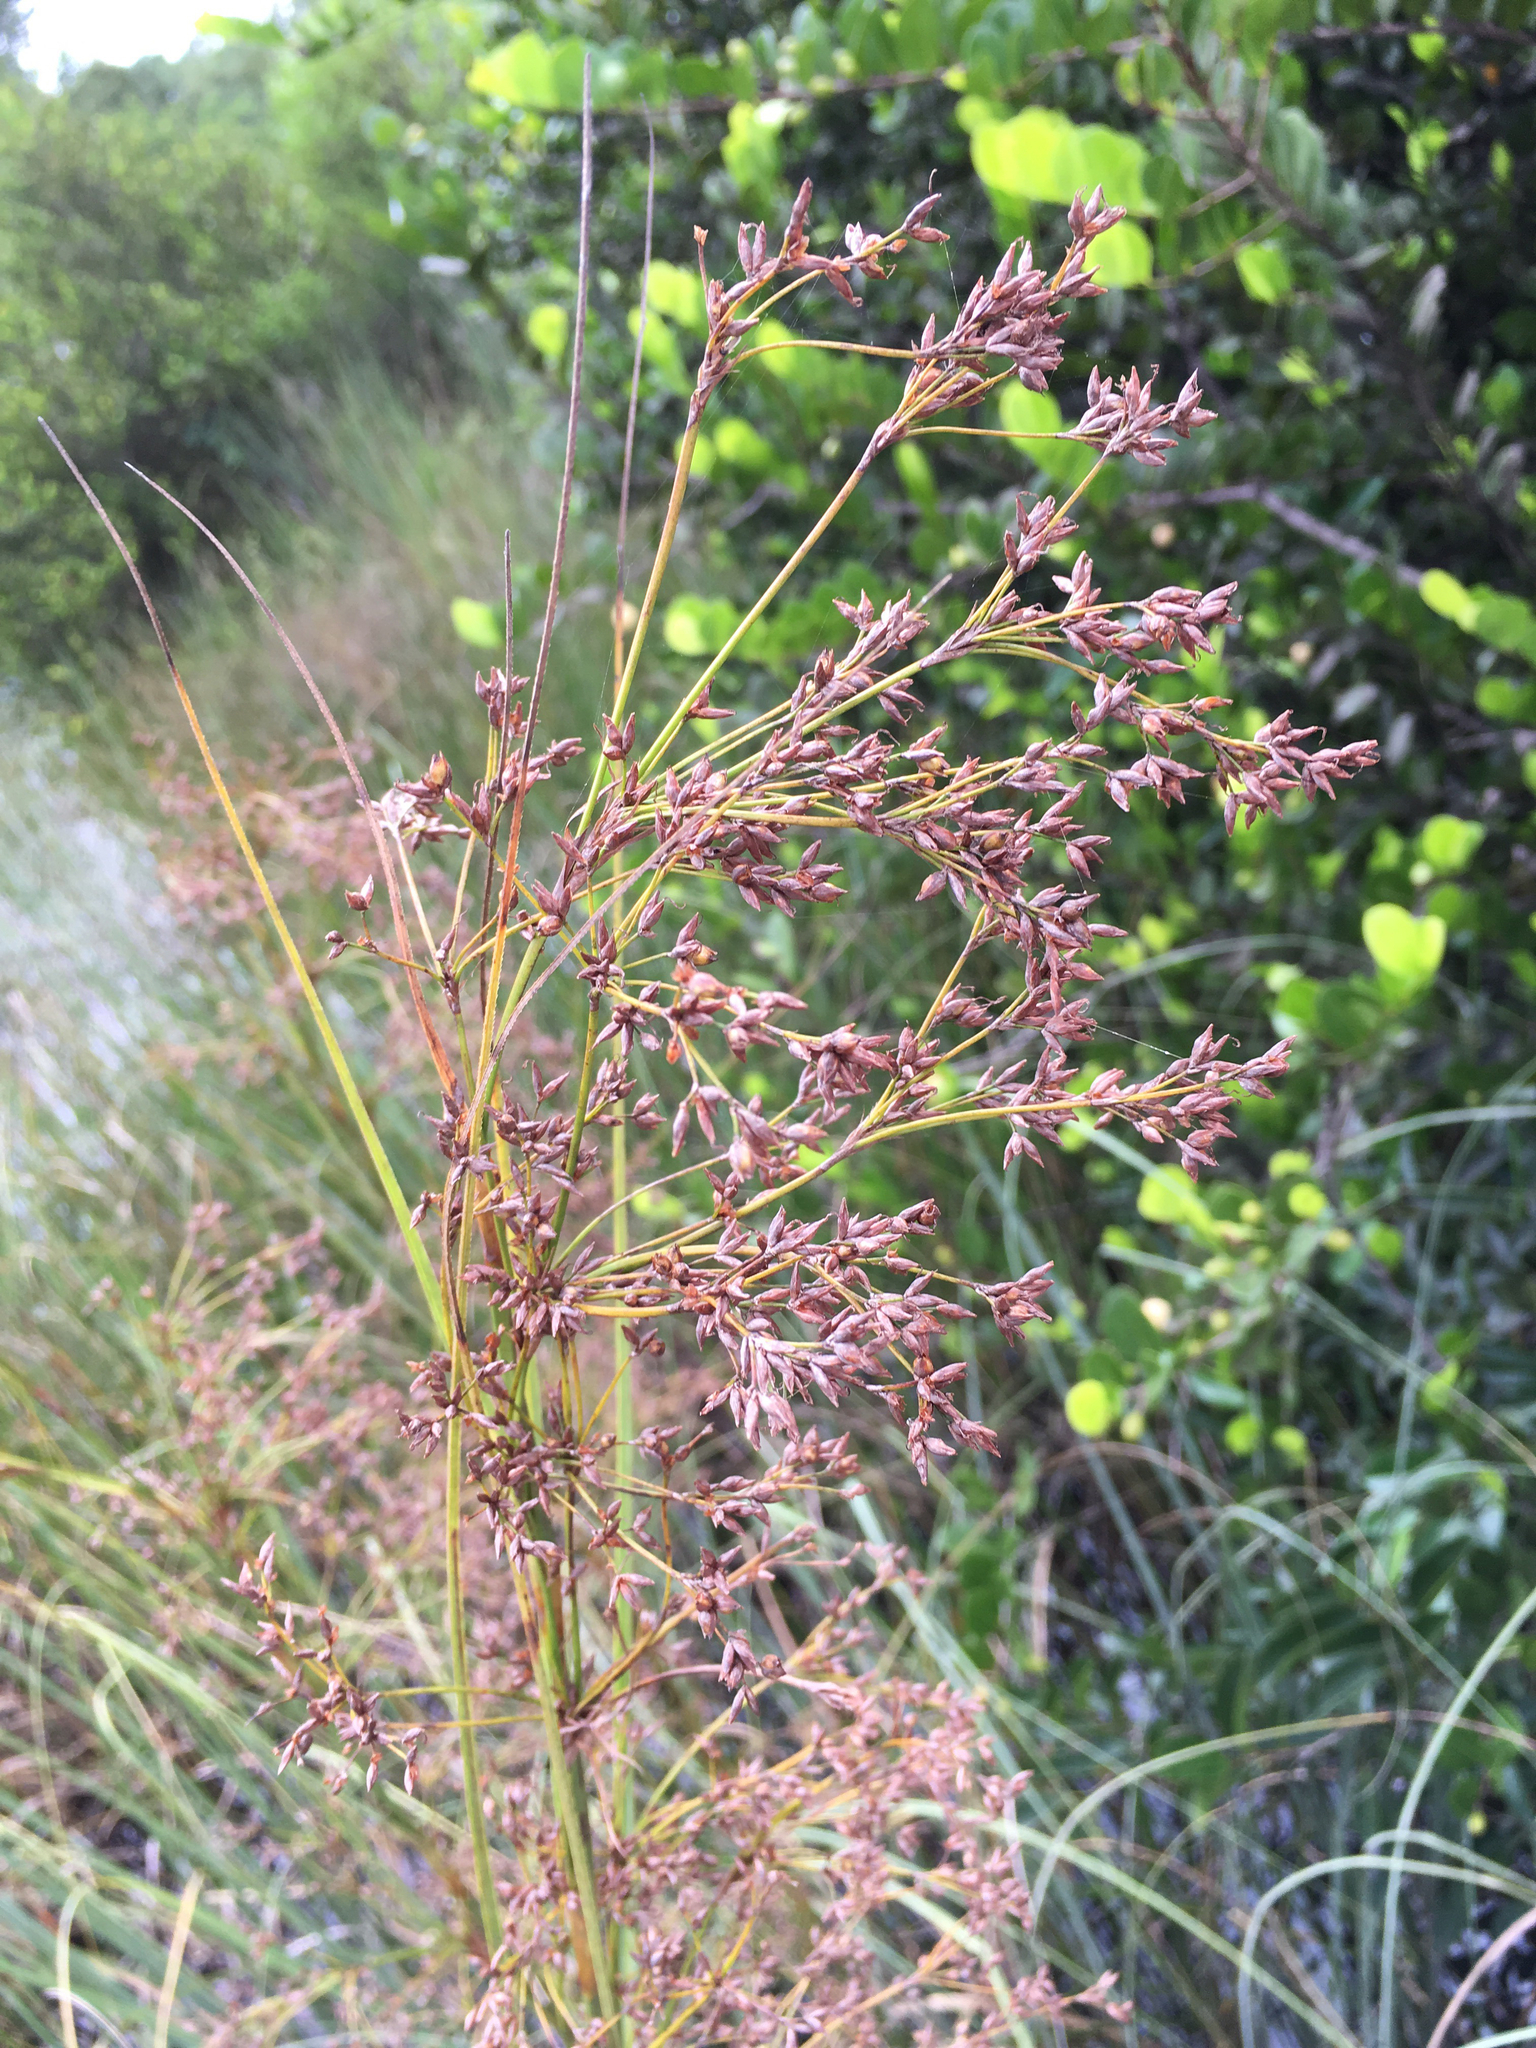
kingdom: Plantae
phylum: Tracheophyta
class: Liliopsida
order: Poales
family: Cyperaceae
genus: Cladium
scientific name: Cladium mariscus
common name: Great fen-sedge
